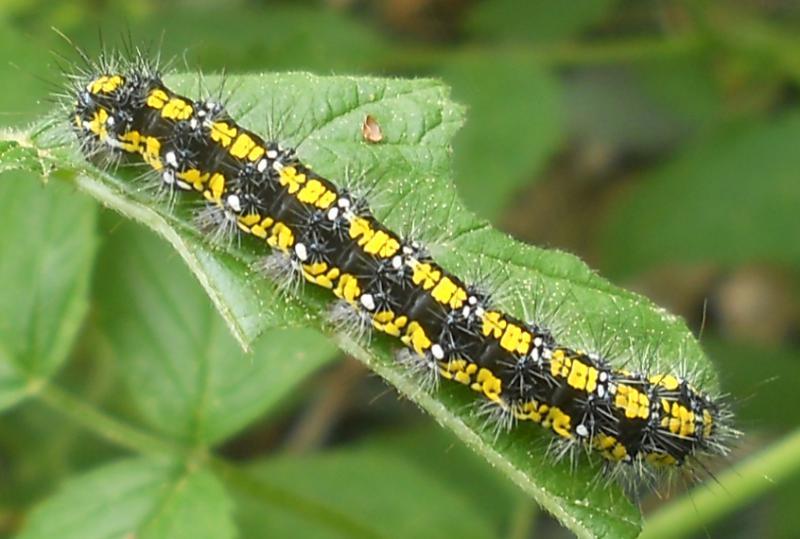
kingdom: Animalia
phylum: Arthropoda
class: Insecta
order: Lepidoptera
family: Erebidae
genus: Callimorpha
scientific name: Callimorpha dominula
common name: Scarlet tiger
